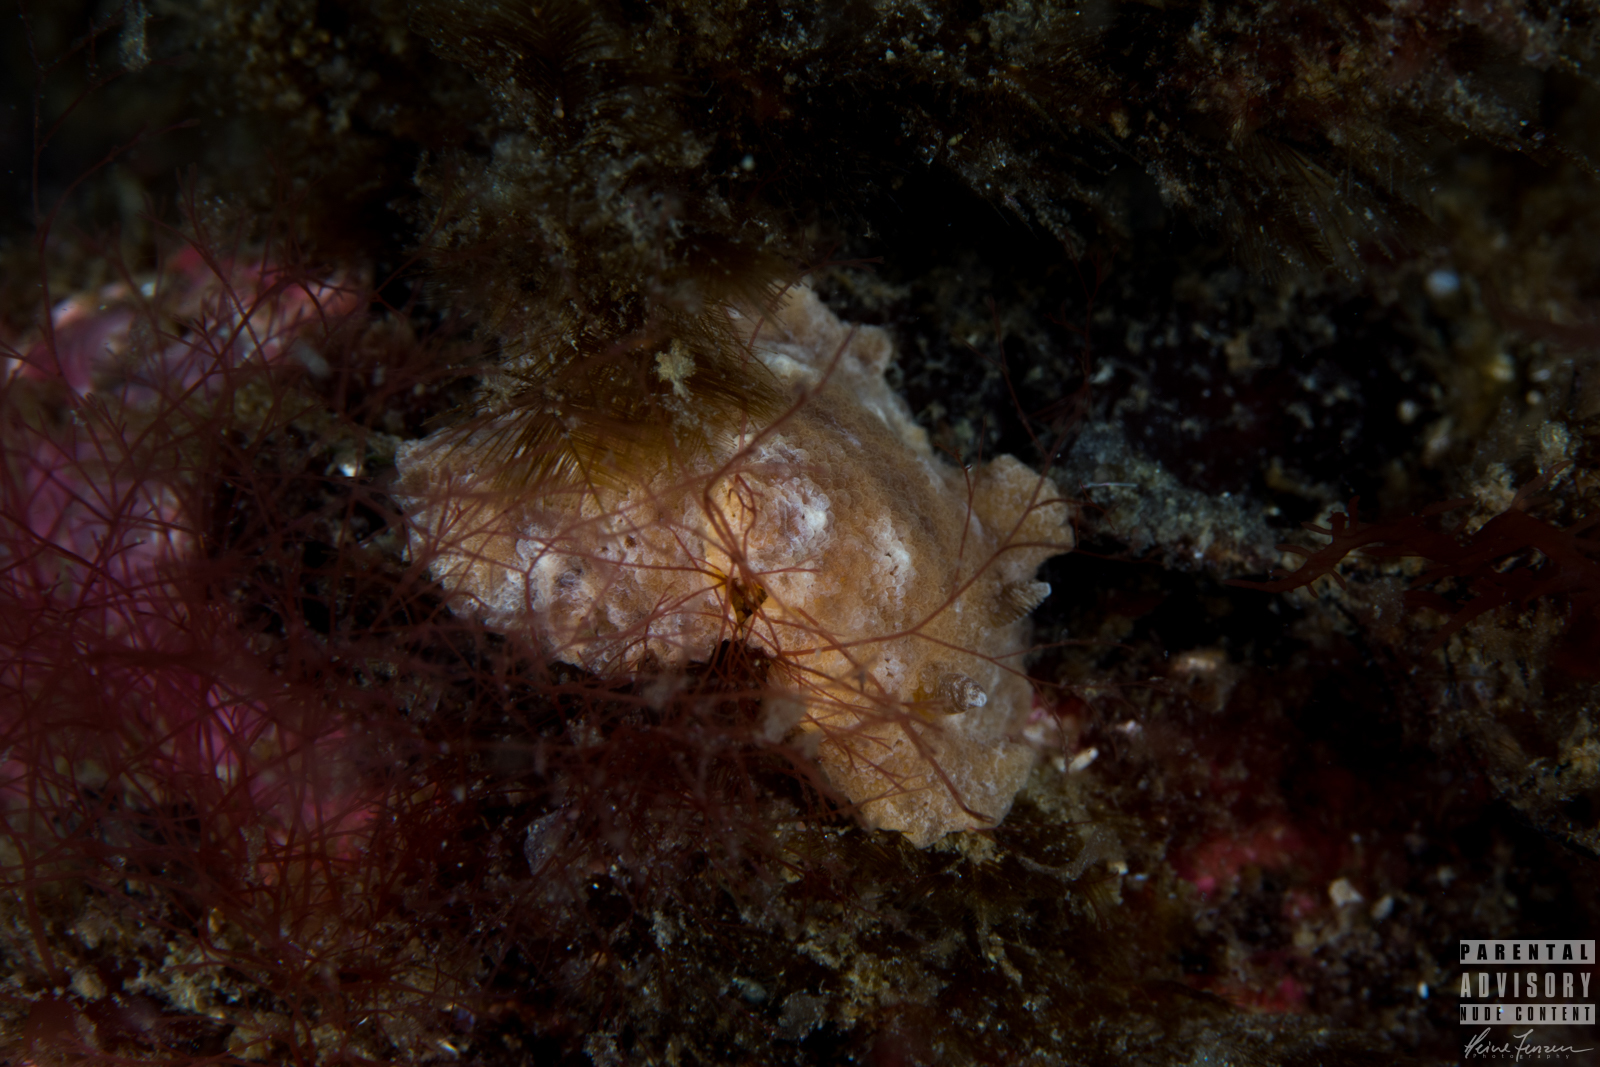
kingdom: Animalia
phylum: Mollusca
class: Gastropoda
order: Nudibranchia
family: Discodorididae
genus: Geitodoris
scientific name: Geitodoris planata
